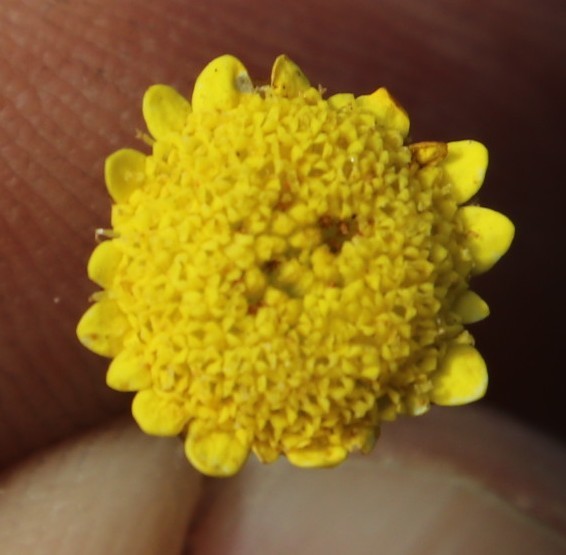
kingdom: Plantae
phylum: Tracheophyta
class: Magnoliopsida
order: Asterales
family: Asteraceae
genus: Cotula
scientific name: Cotula pruinosa
